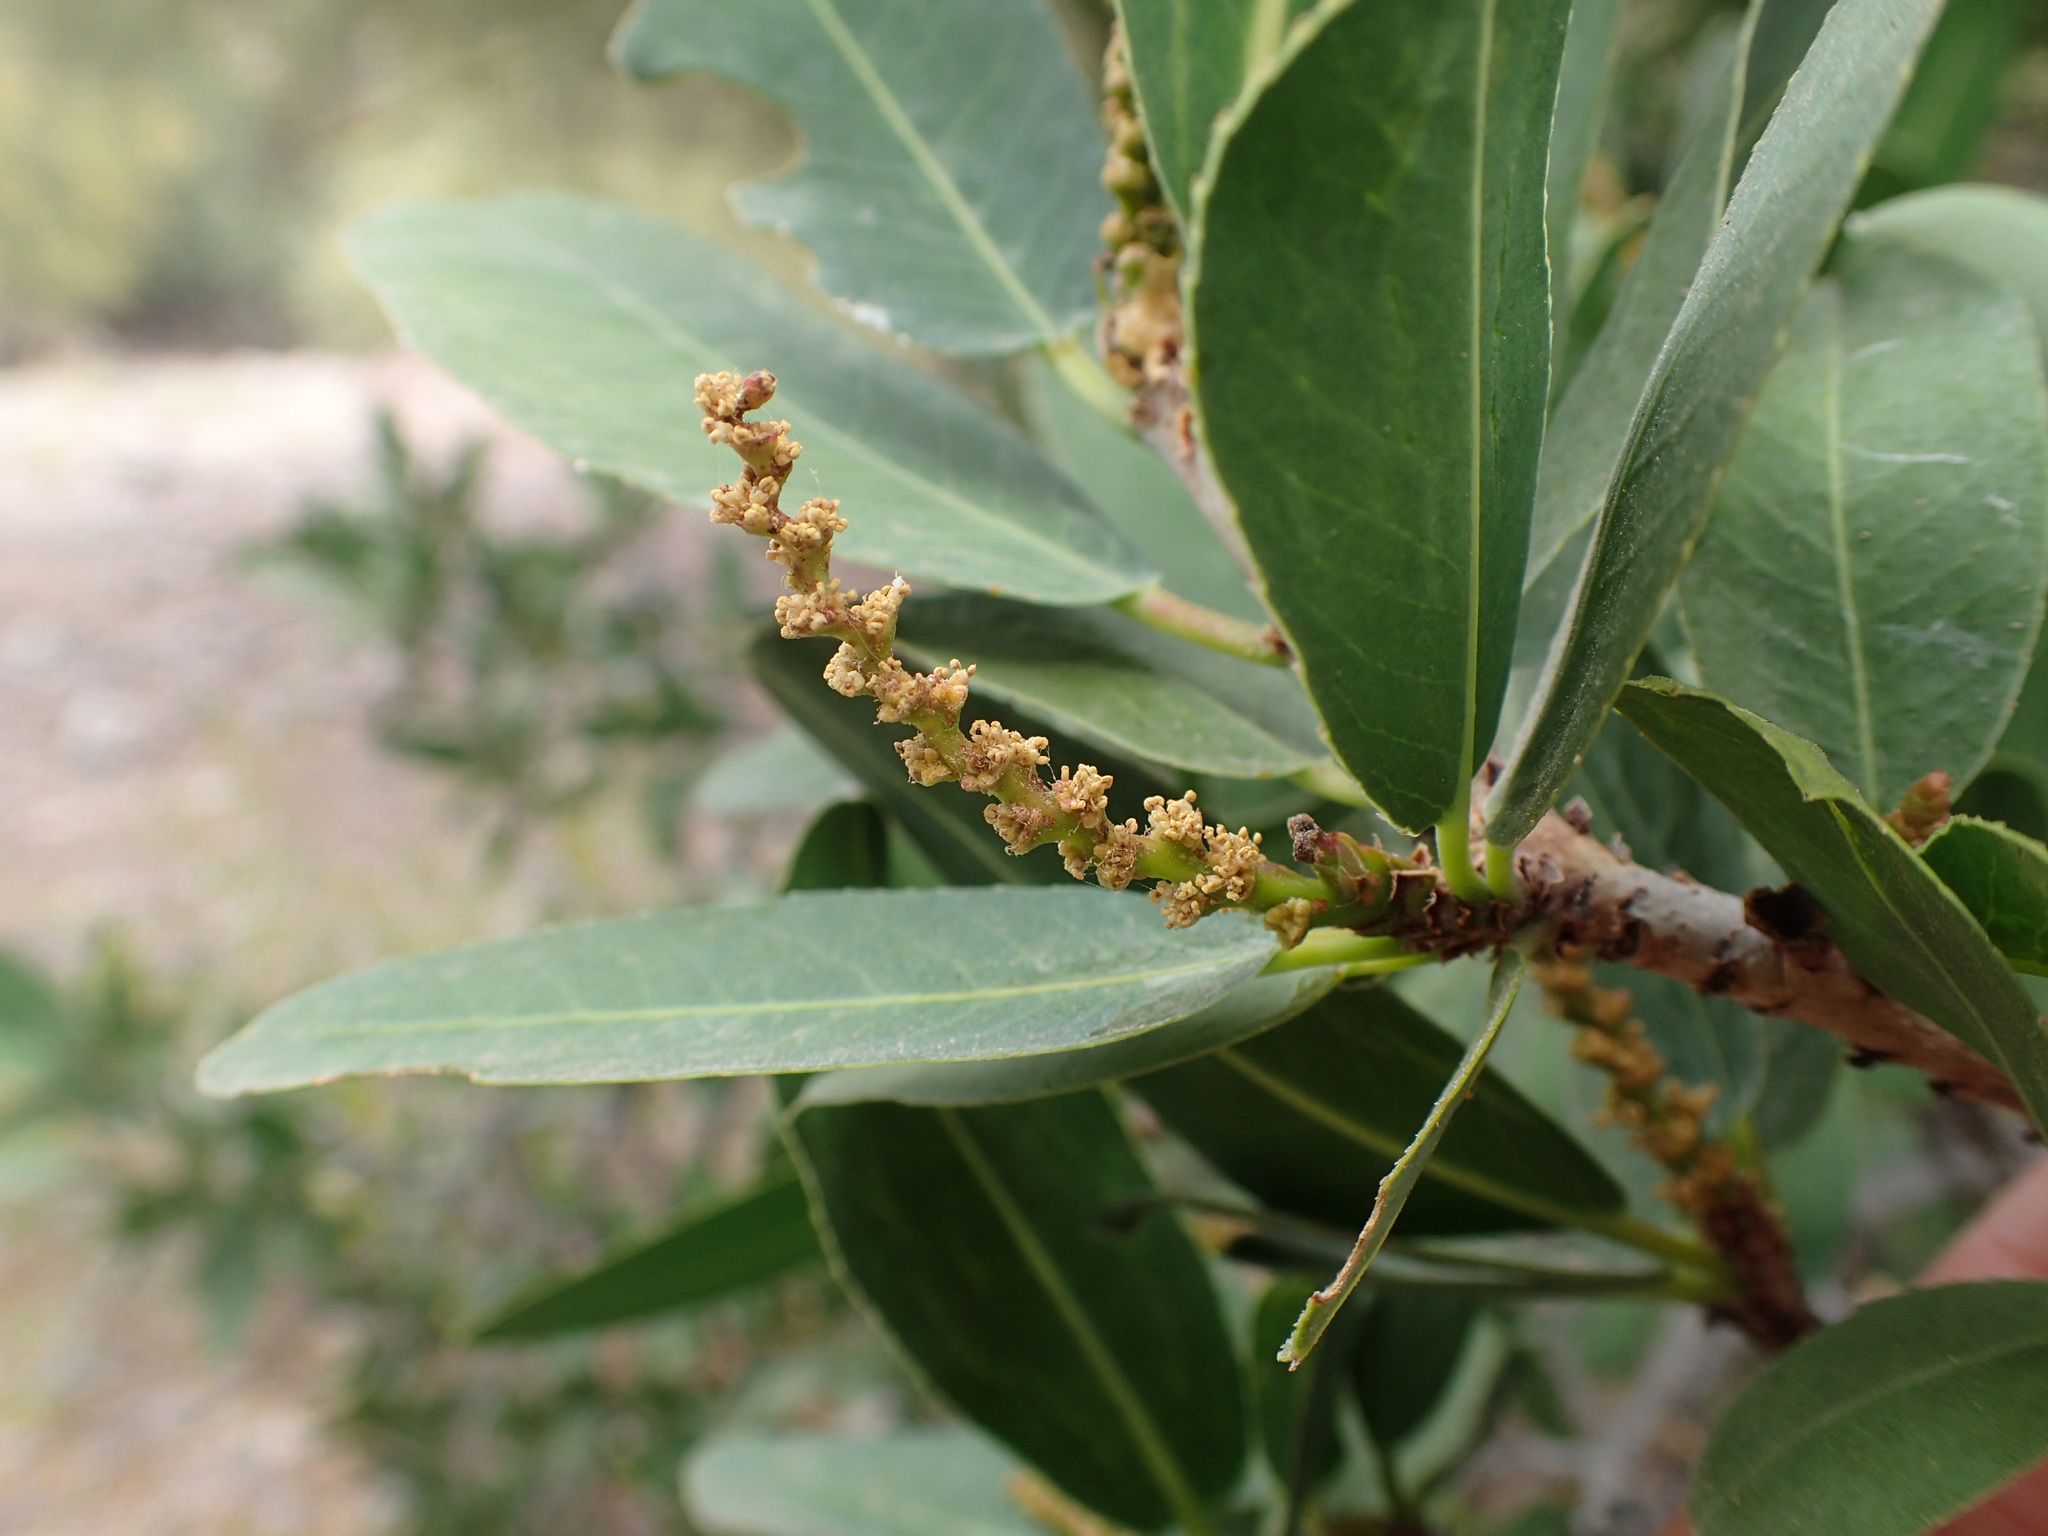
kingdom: Plantae
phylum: Tracheophyta
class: Magnoliopsida
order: Malpighiales
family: Euphorbiaceae
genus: Pleradenophora
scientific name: Pleradenophora bilocularis
